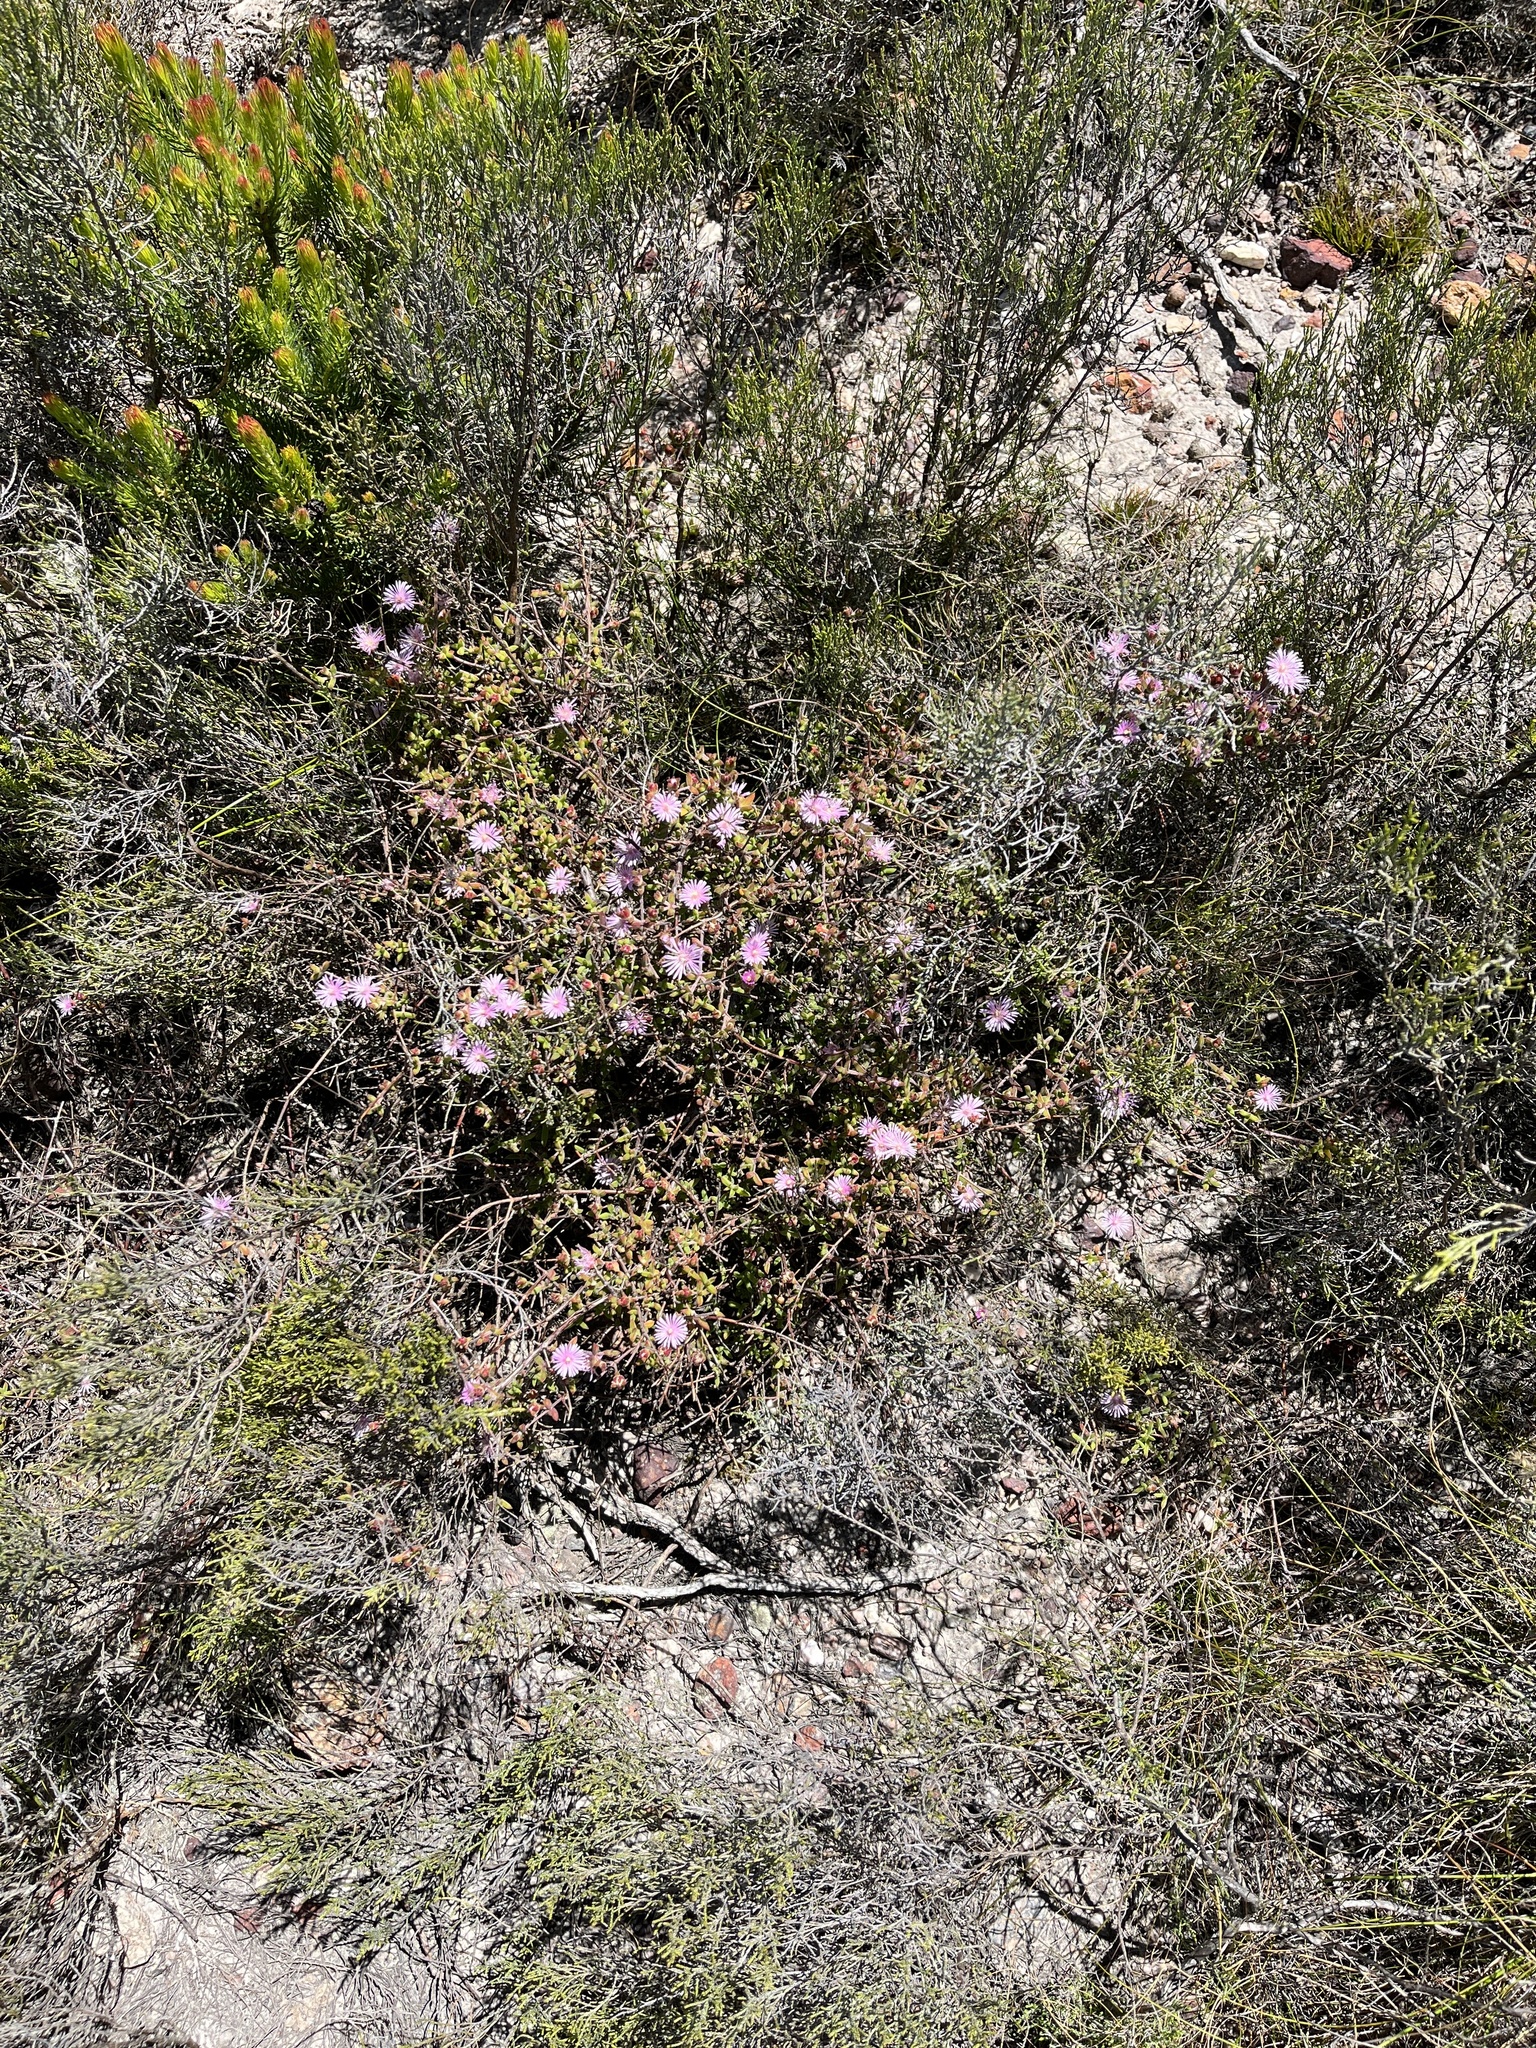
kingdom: Plantae
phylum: Tracheophyta
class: Magnoliopsida
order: Caryophyllales
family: Aizoaceae
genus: Drosanthemum
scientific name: Drosanthemum acutifolium
